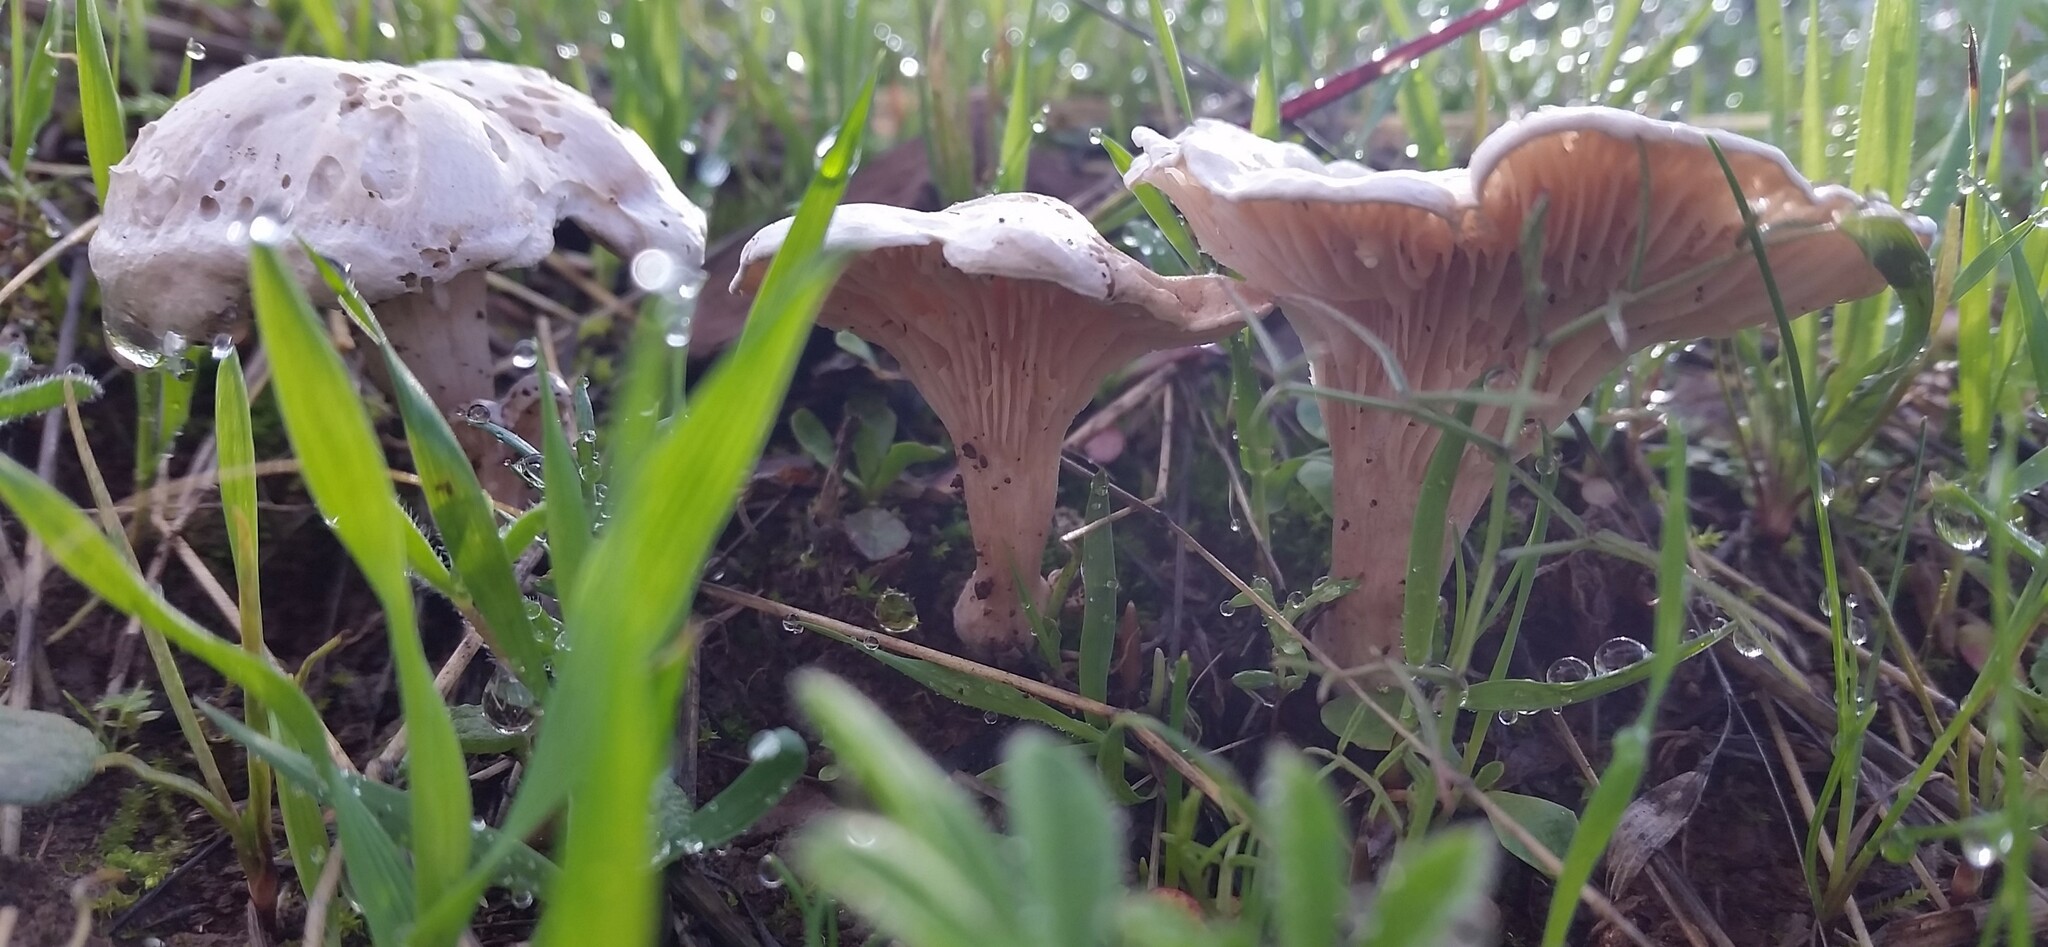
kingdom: Fungi
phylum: Basidiomycota
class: Agaricomycetes
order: Agaricales
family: Tricholomataceae
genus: Collybia
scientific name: Collybia
